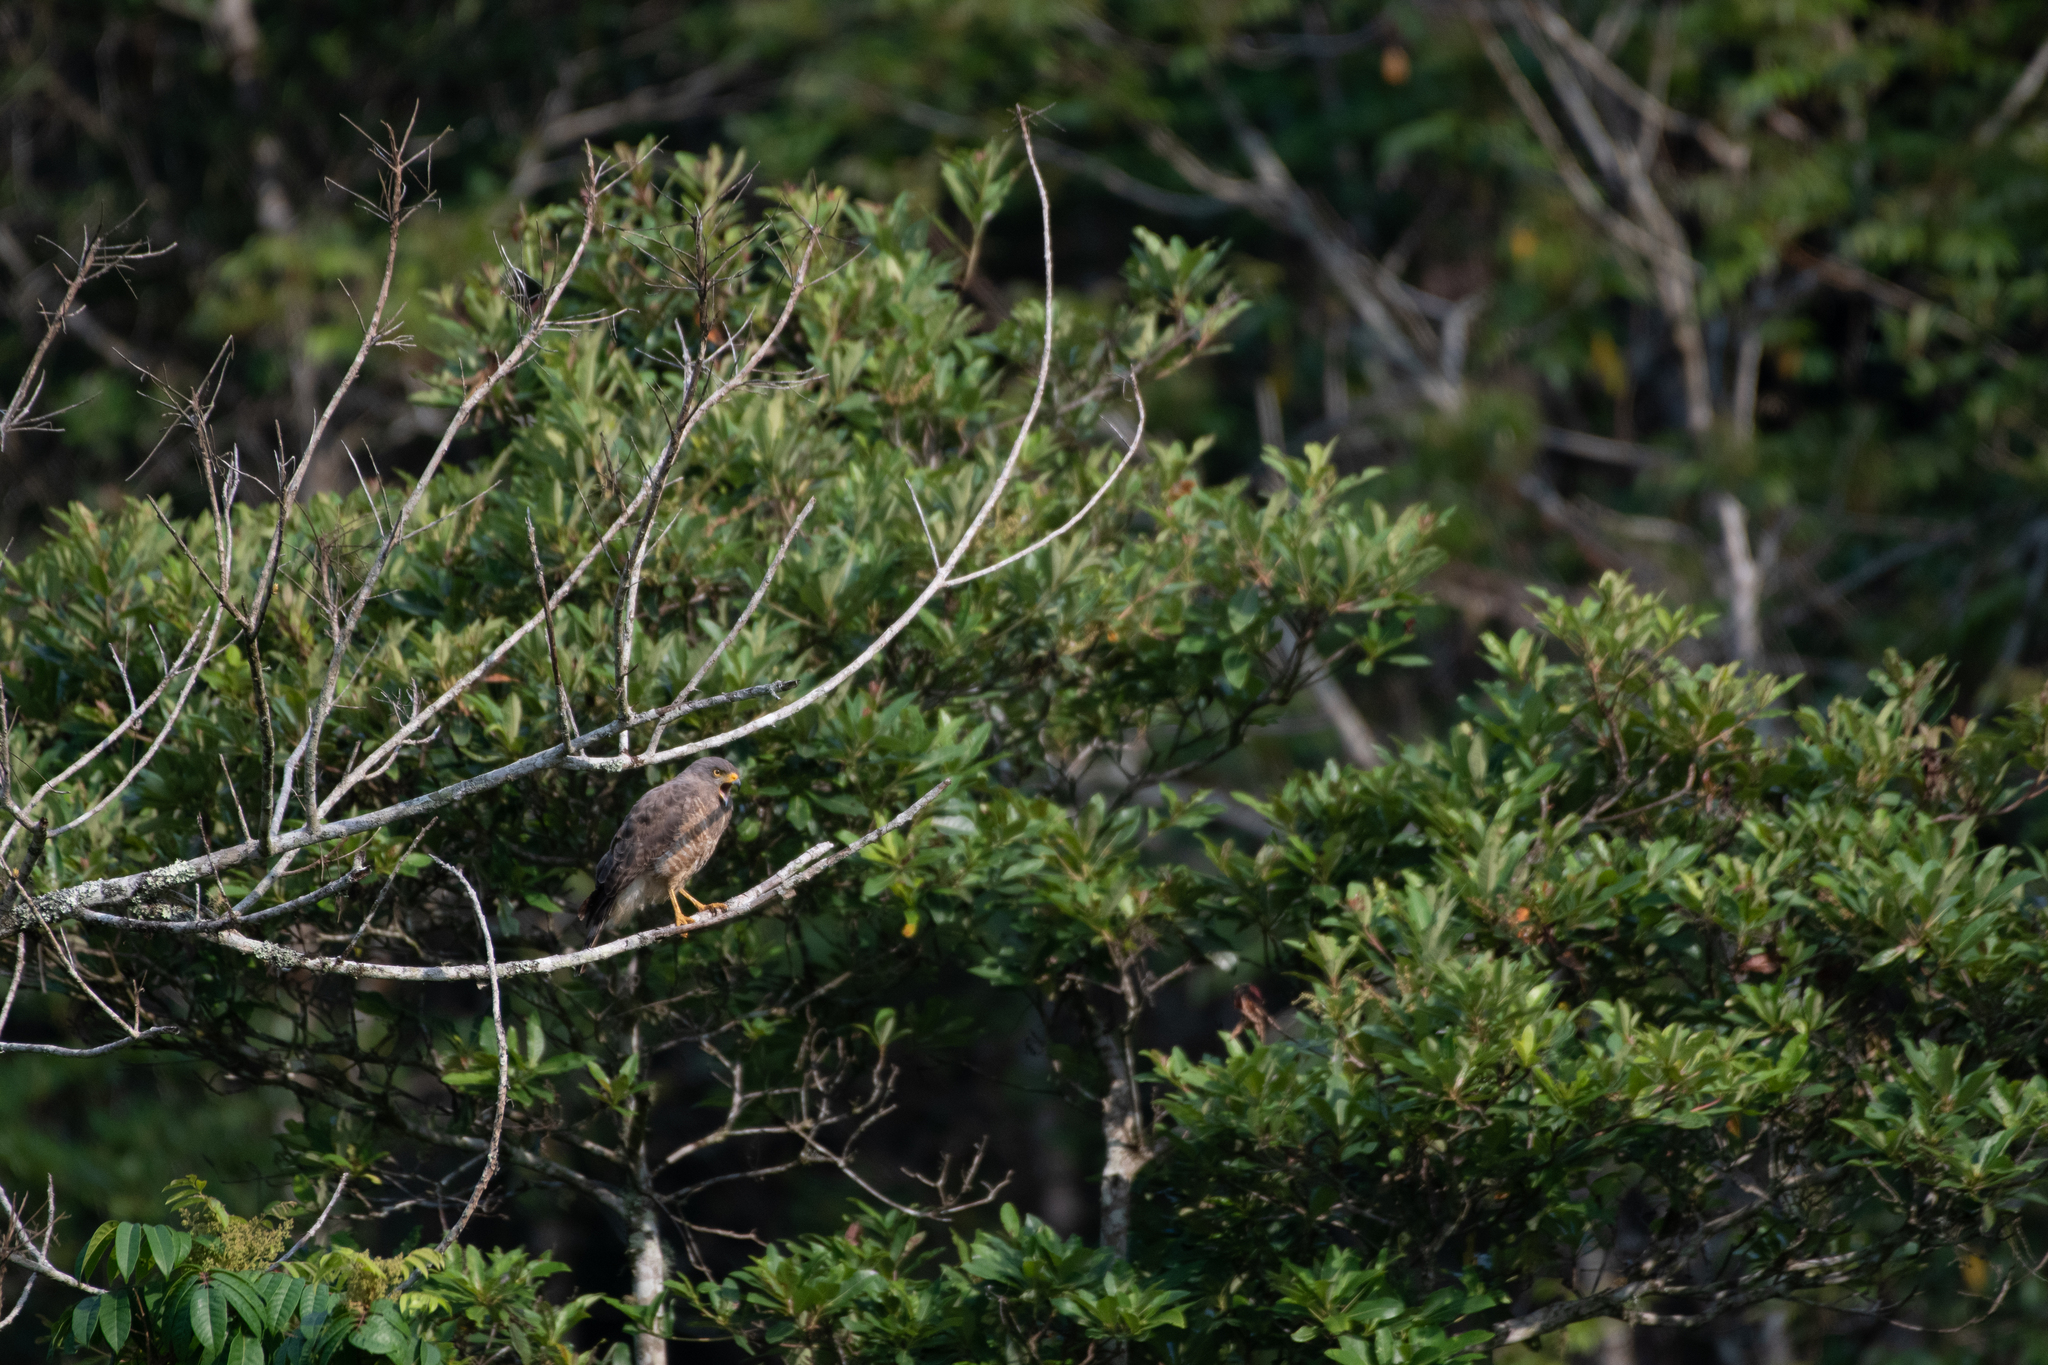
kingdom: Animalia
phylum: Chordata
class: Aves
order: Accipitriformes
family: Accipitridae
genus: Rupornis
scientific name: Rupornis magnirostris
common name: Roadside hawk
